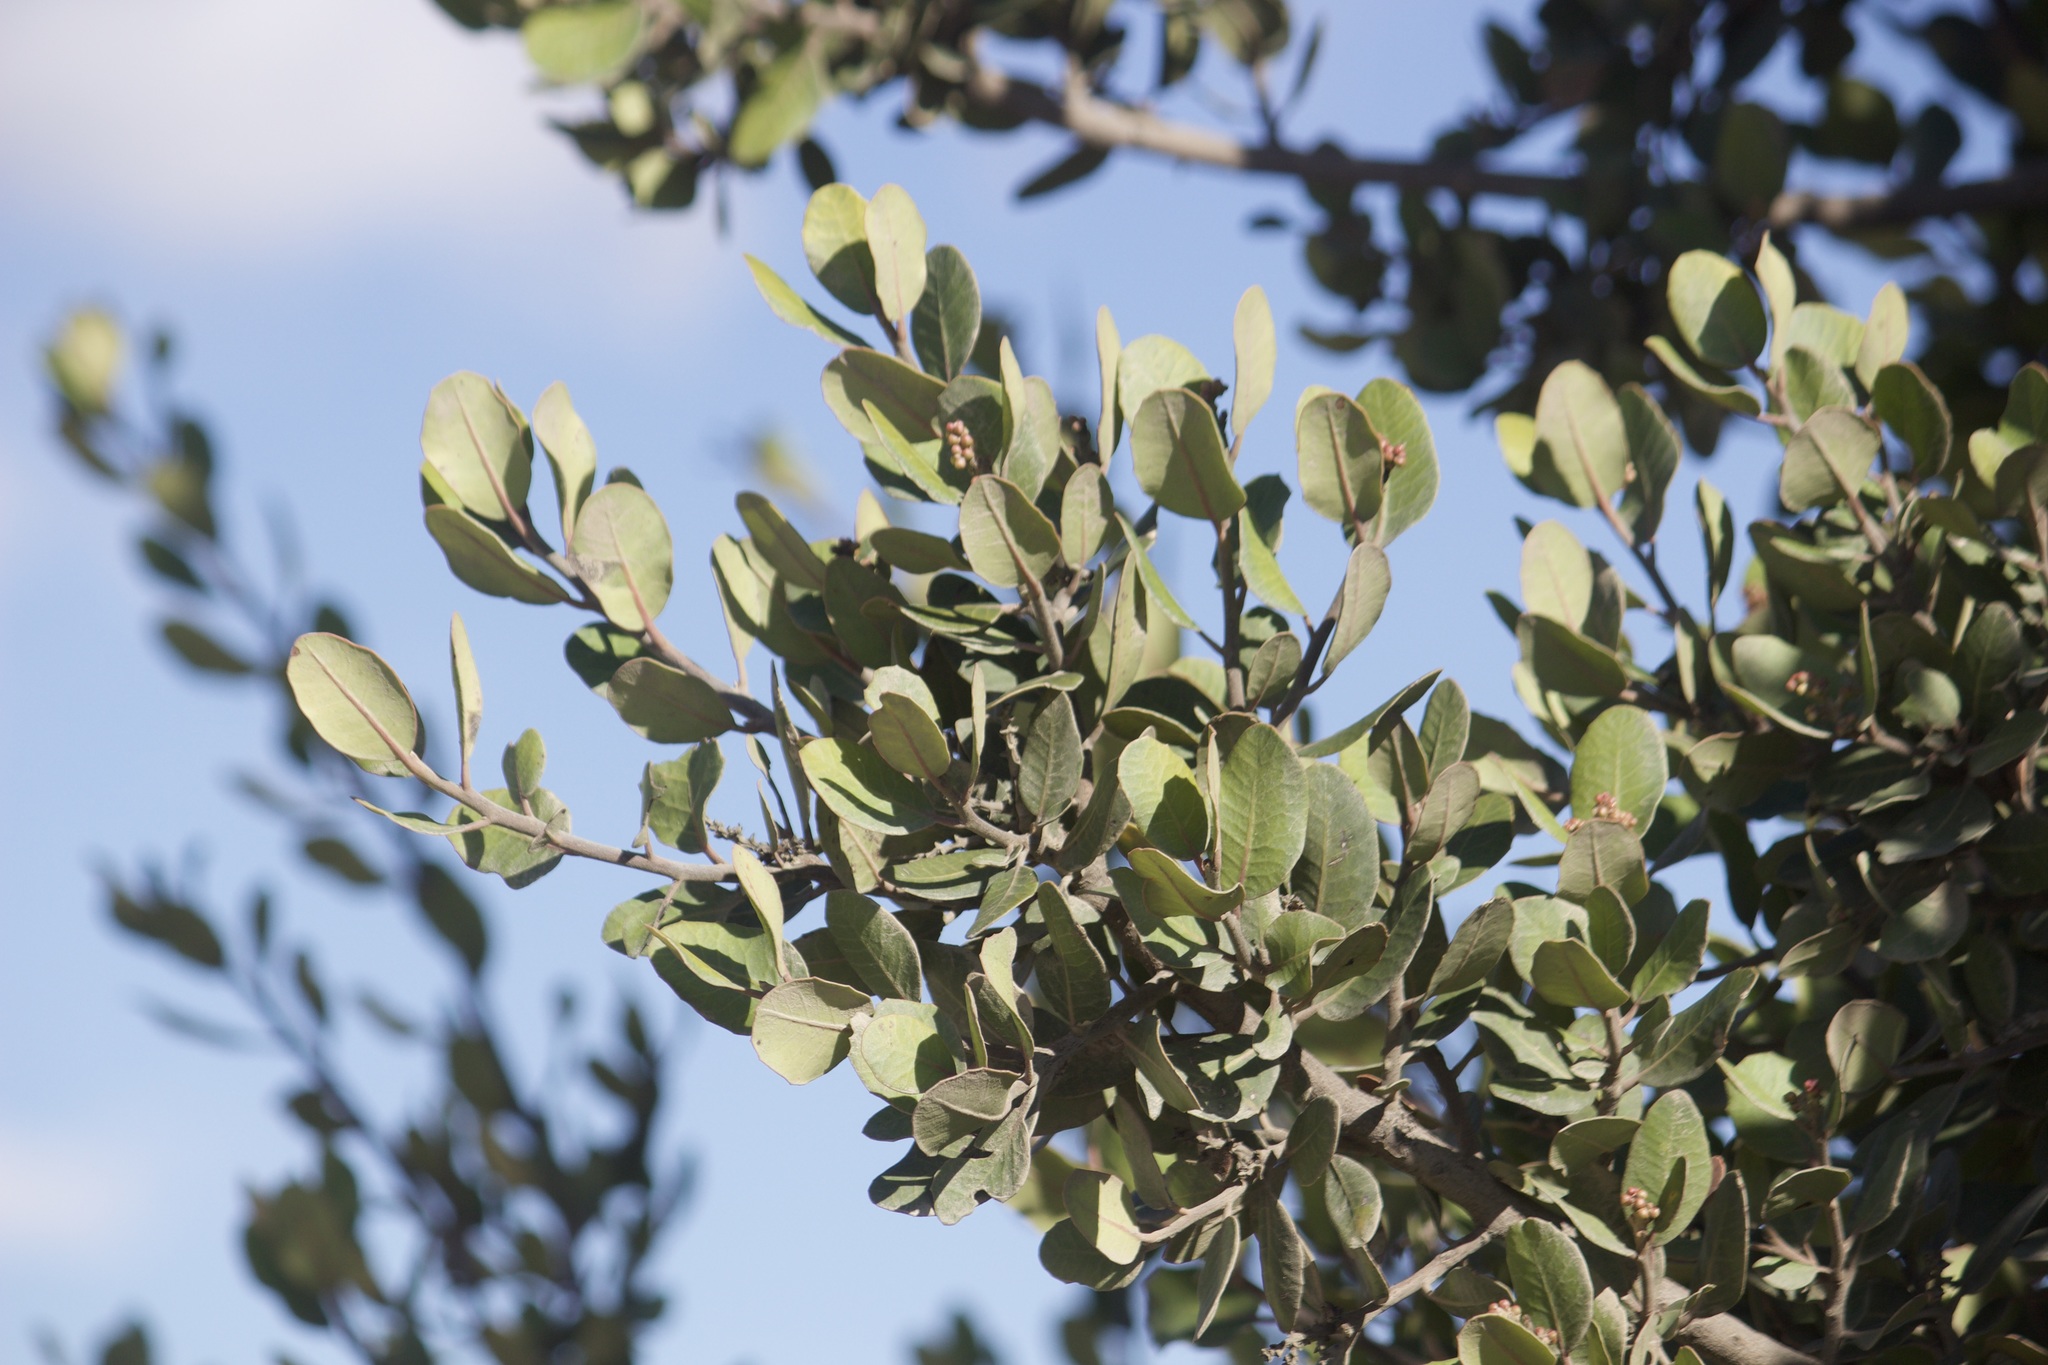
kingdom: Plantae
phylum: Tracheophyta
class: Magnoliopsida
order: Sapindales
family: Anacardiaceae
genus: Rhus
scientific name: Rhus integrifolia
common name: Lemonade sumac
